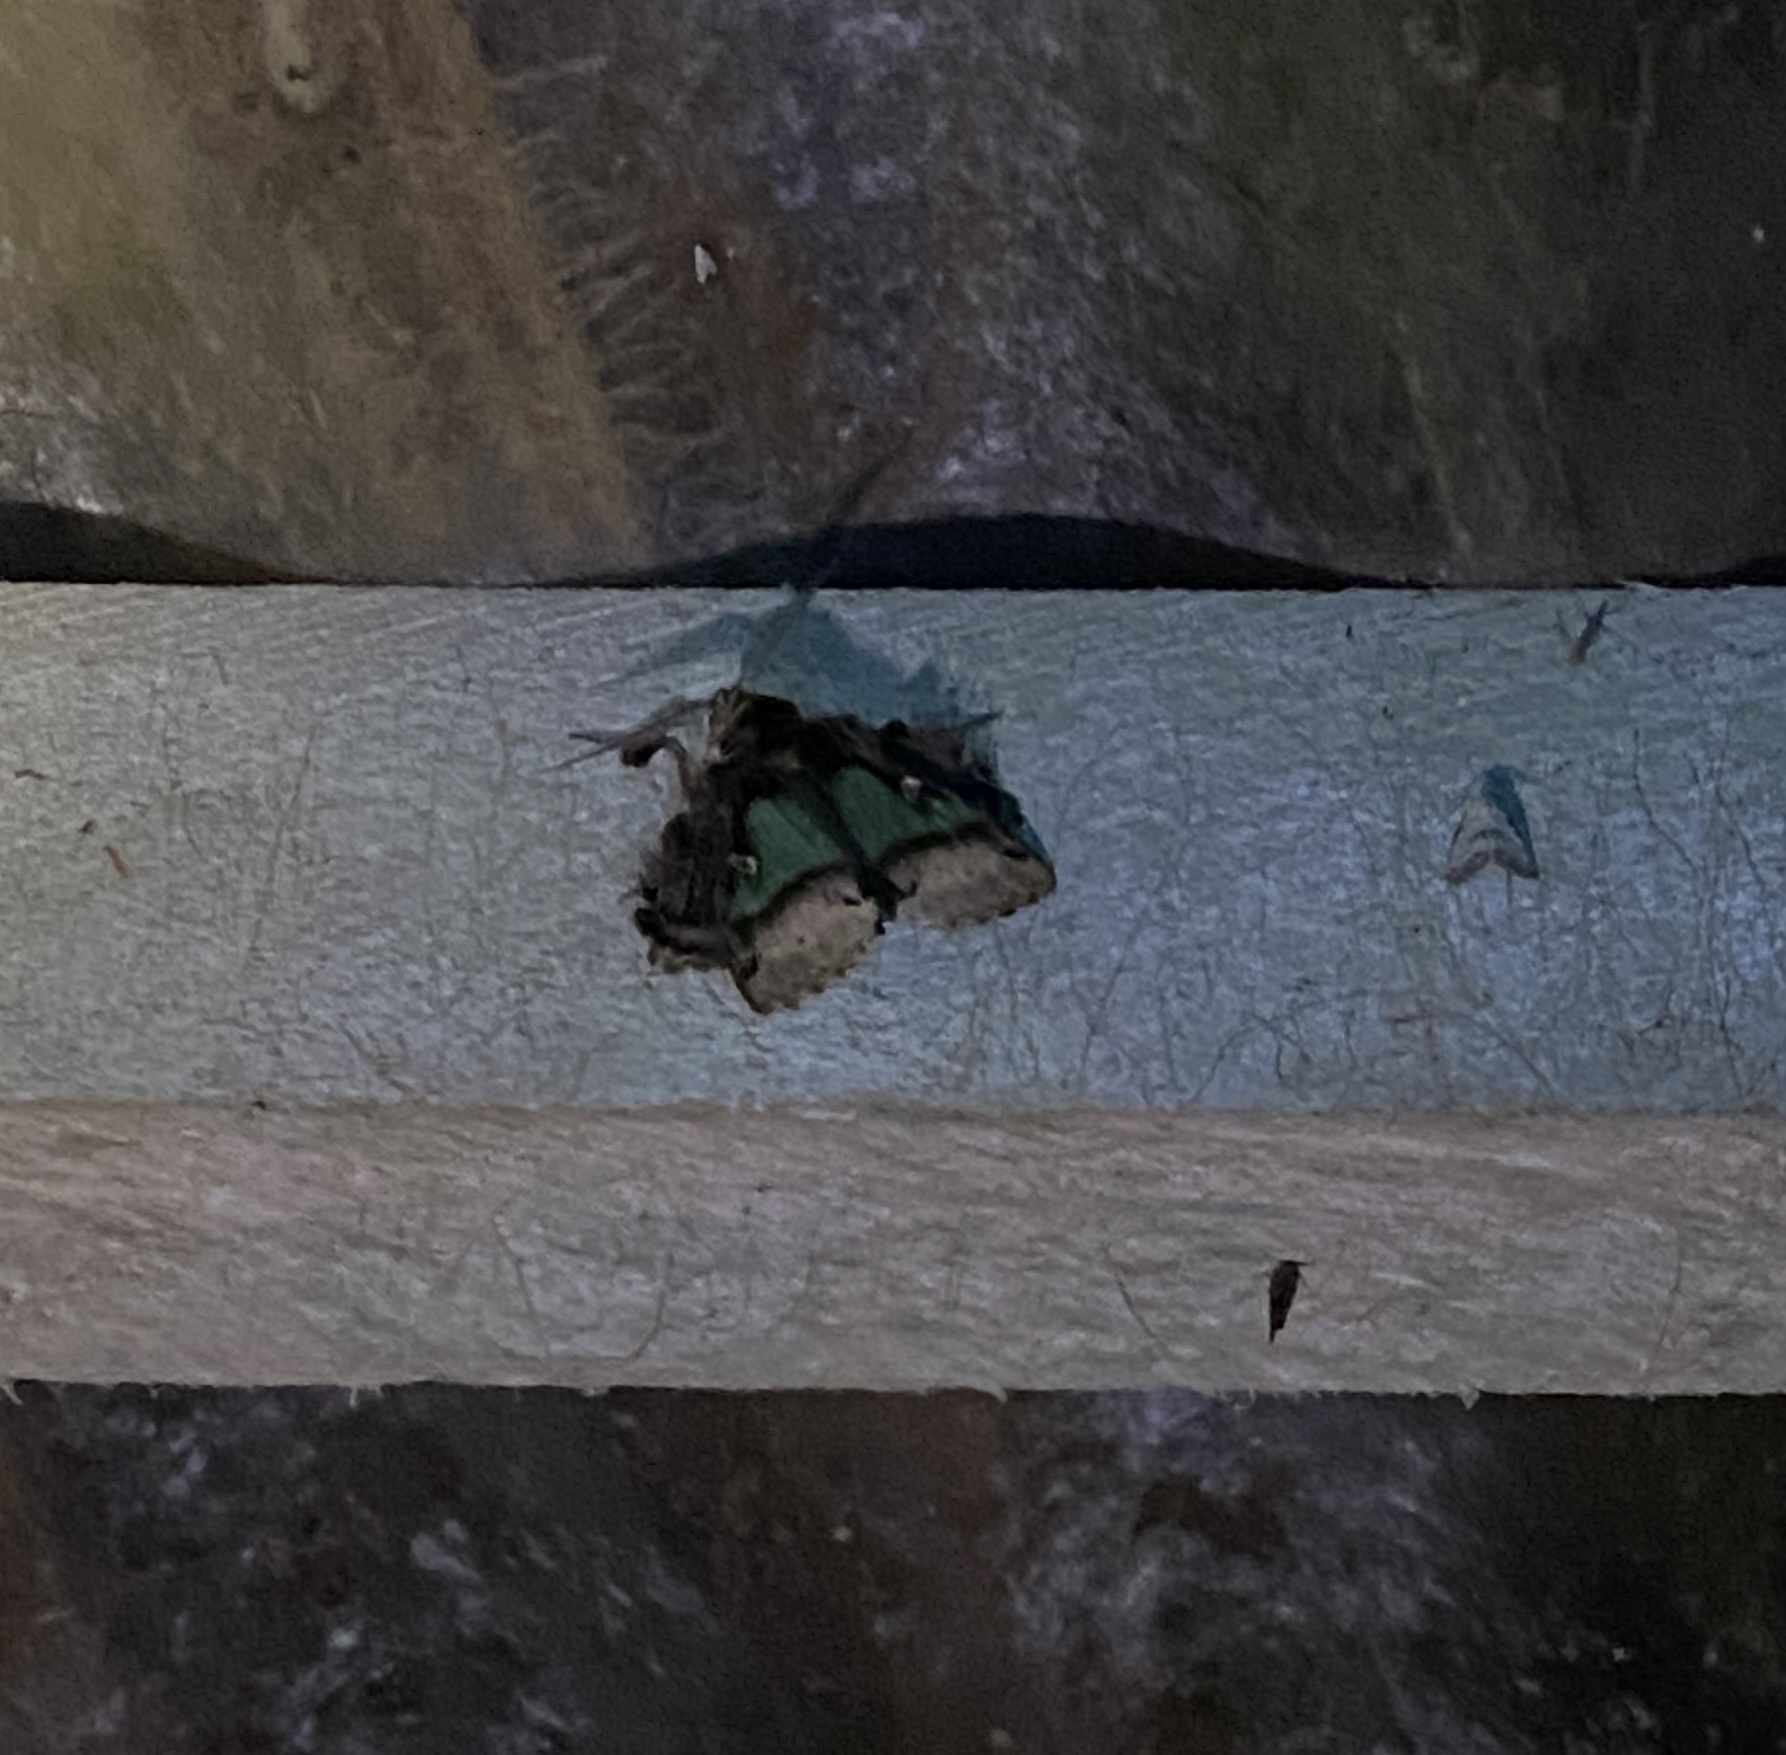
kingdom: Animalia
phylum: Arthropoda
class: Insecta
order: Lepidoptera
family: Erebidae
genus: Ceroctena
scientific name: Ceroctena amynta
